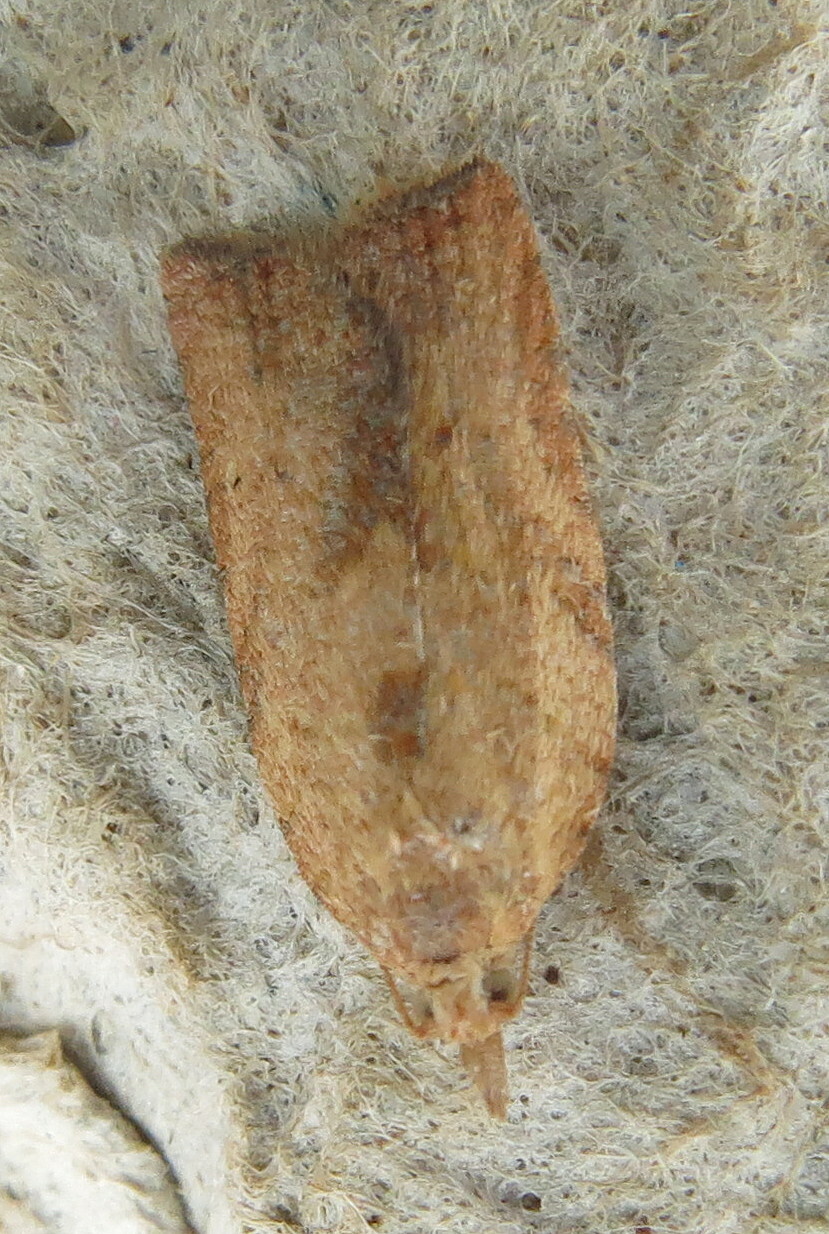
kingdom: Animalia
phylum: Arthropoda
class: Insecta
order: Lepidoptera
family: Tortricidae
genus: Epiphyas
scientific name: Epiphyas postvittana
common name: Light brown apple moth
